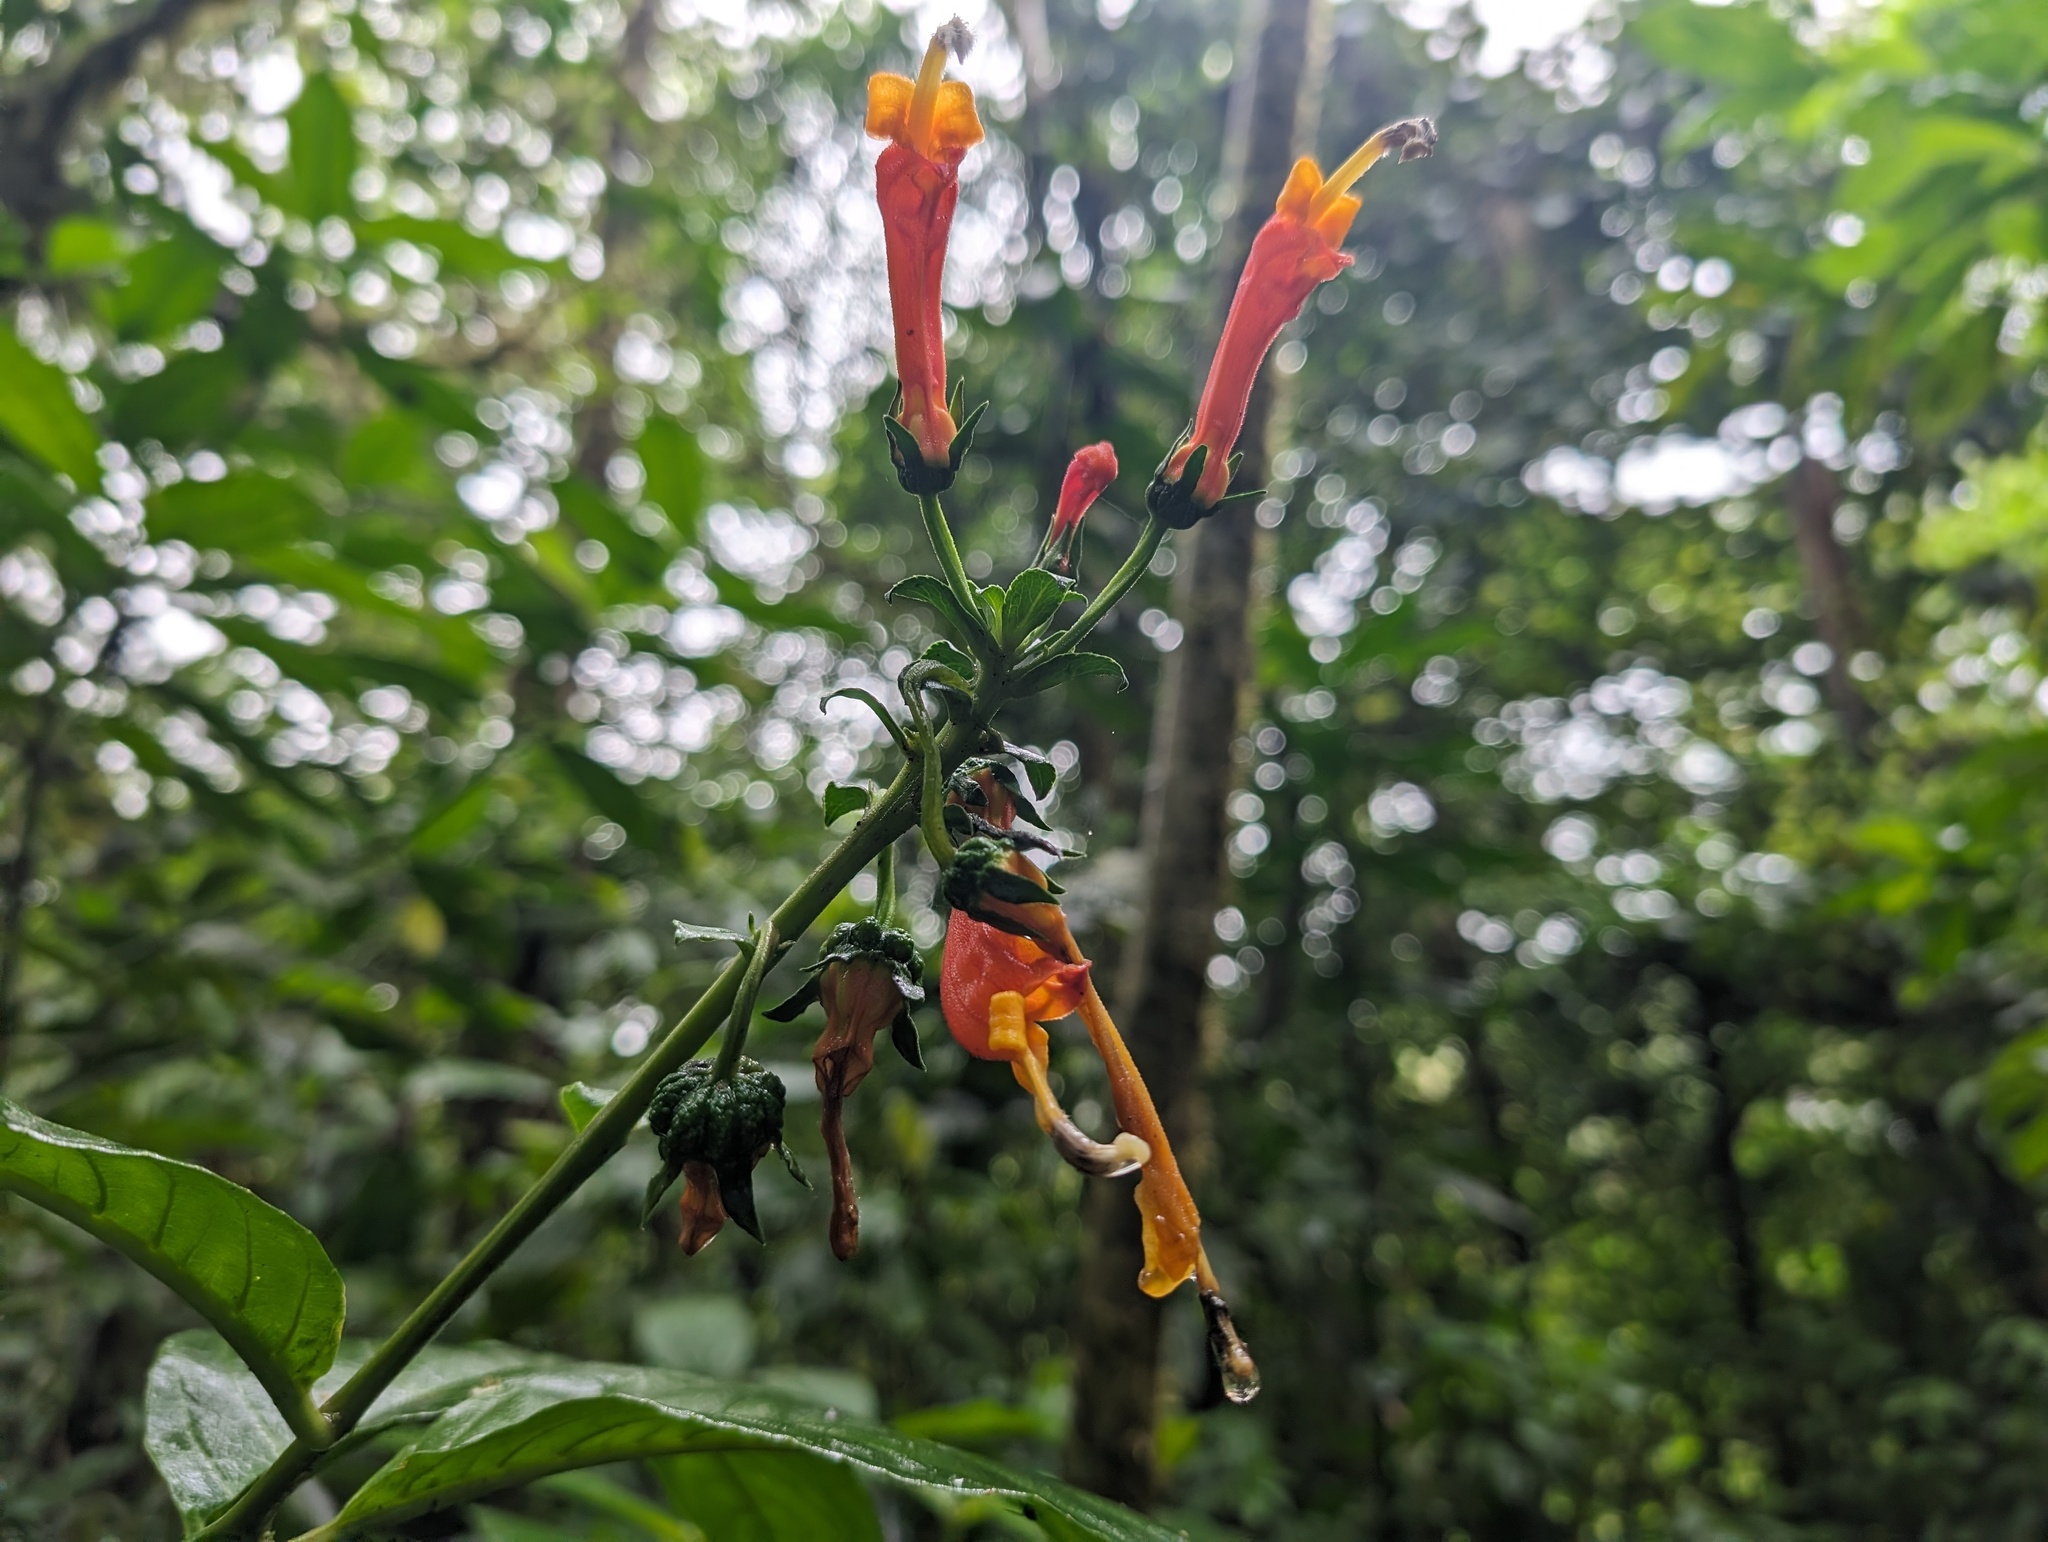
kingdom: Plantae
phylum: Tracheophyta
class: Magnoliopsida
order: Asterales
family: Campanulaceae
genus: Centropogon
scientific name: Centropogon granulosus
